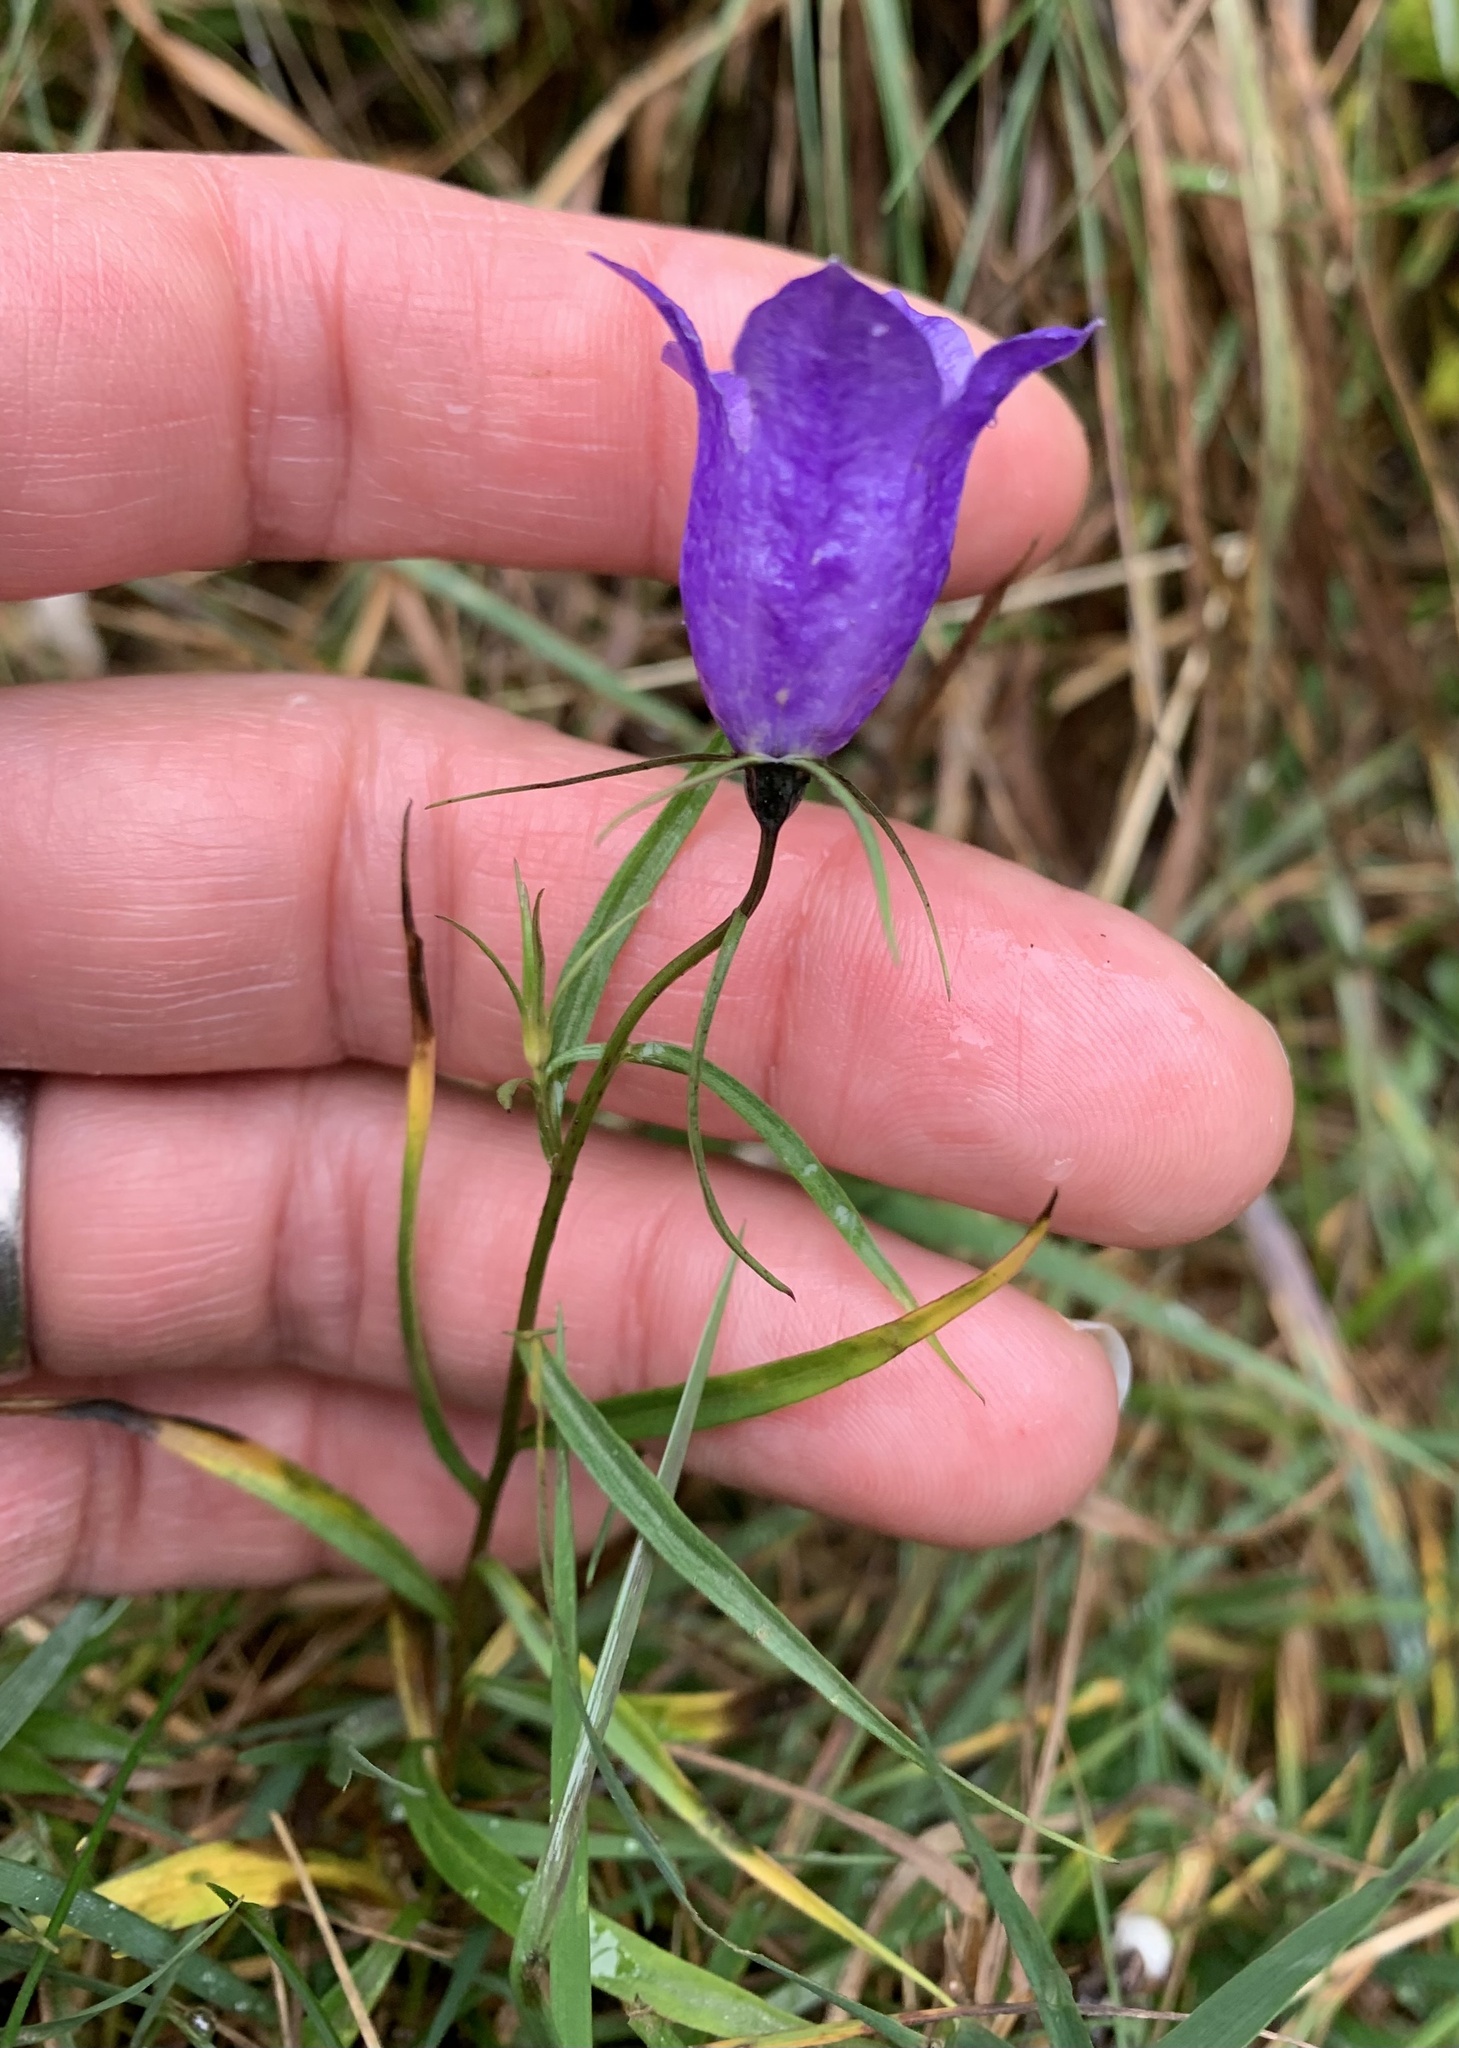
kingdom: Plantae
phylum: Tracheophyta
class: Magnoliopsida
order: Asterales
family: Campanulaceae
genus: Campanula
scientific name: Campanula scheuchzeri
